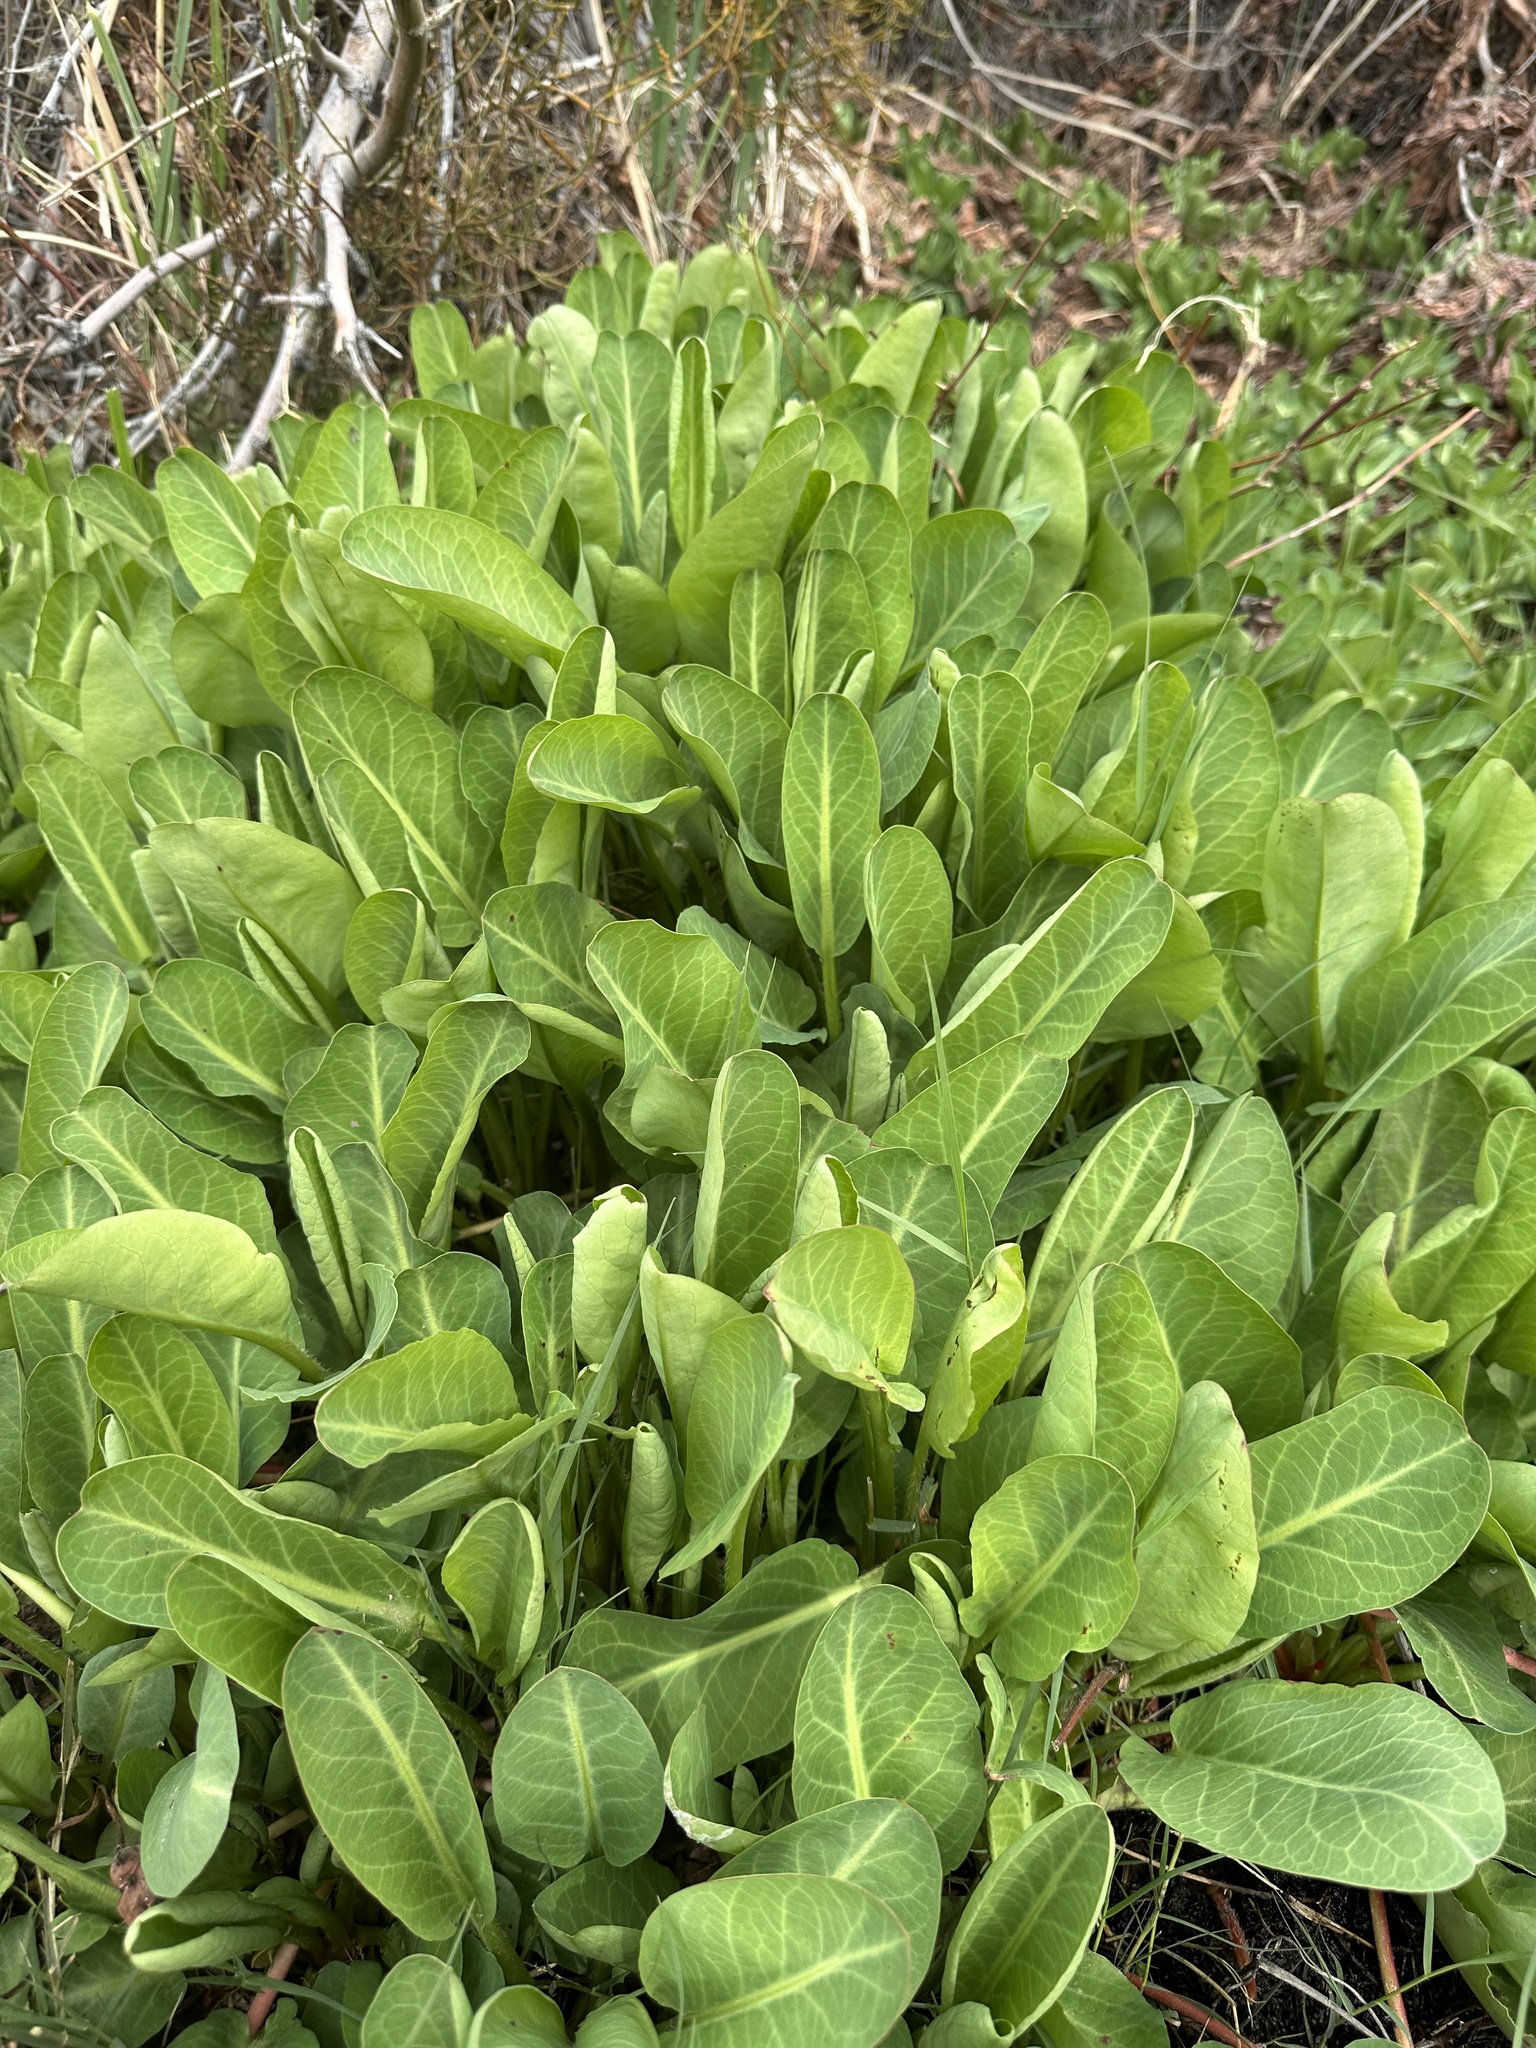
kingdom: Plantae
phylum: Tracheophyta
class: Magnoliopsida
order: Piperales
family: Saururaceae
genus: Anemopsis
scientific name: Anemopsis californica
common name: Apache-beads
